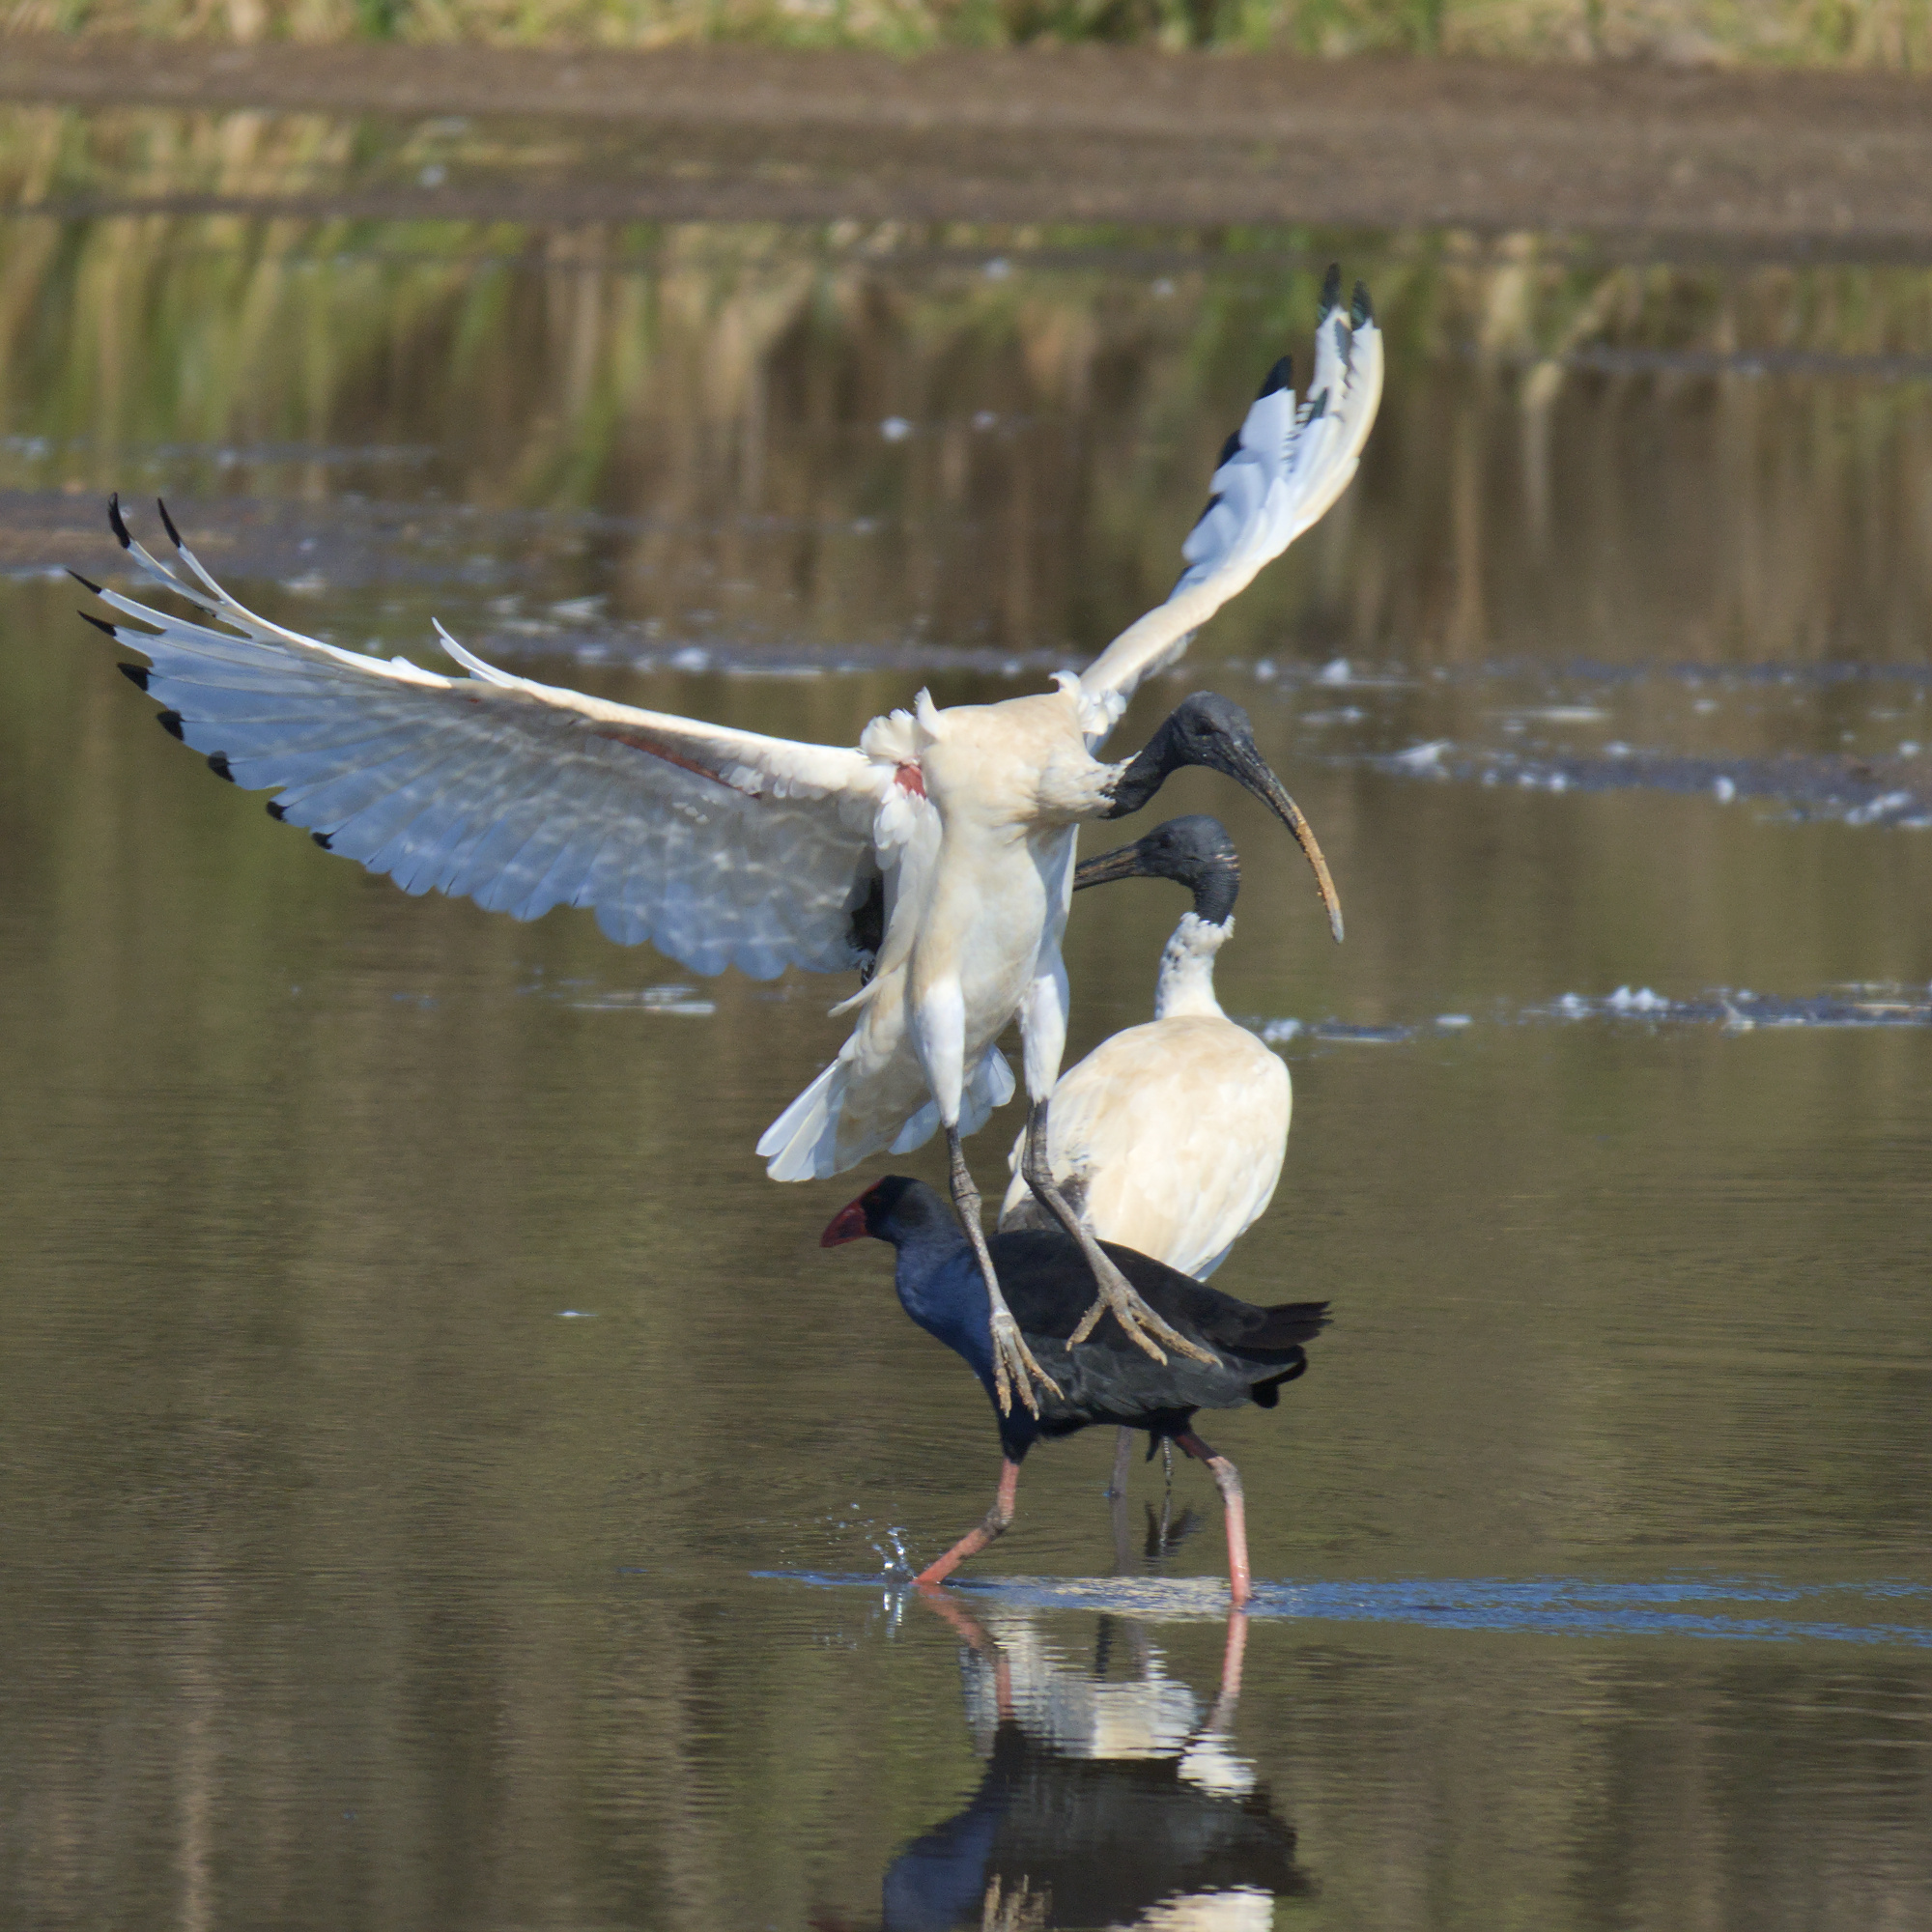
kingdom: Animalia
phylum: Chordata
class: Aves
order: Pelecaniformes
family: Threskiornithidae
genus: Threskiornis
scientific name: Threskiornis molucca
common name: Australian white ibis
